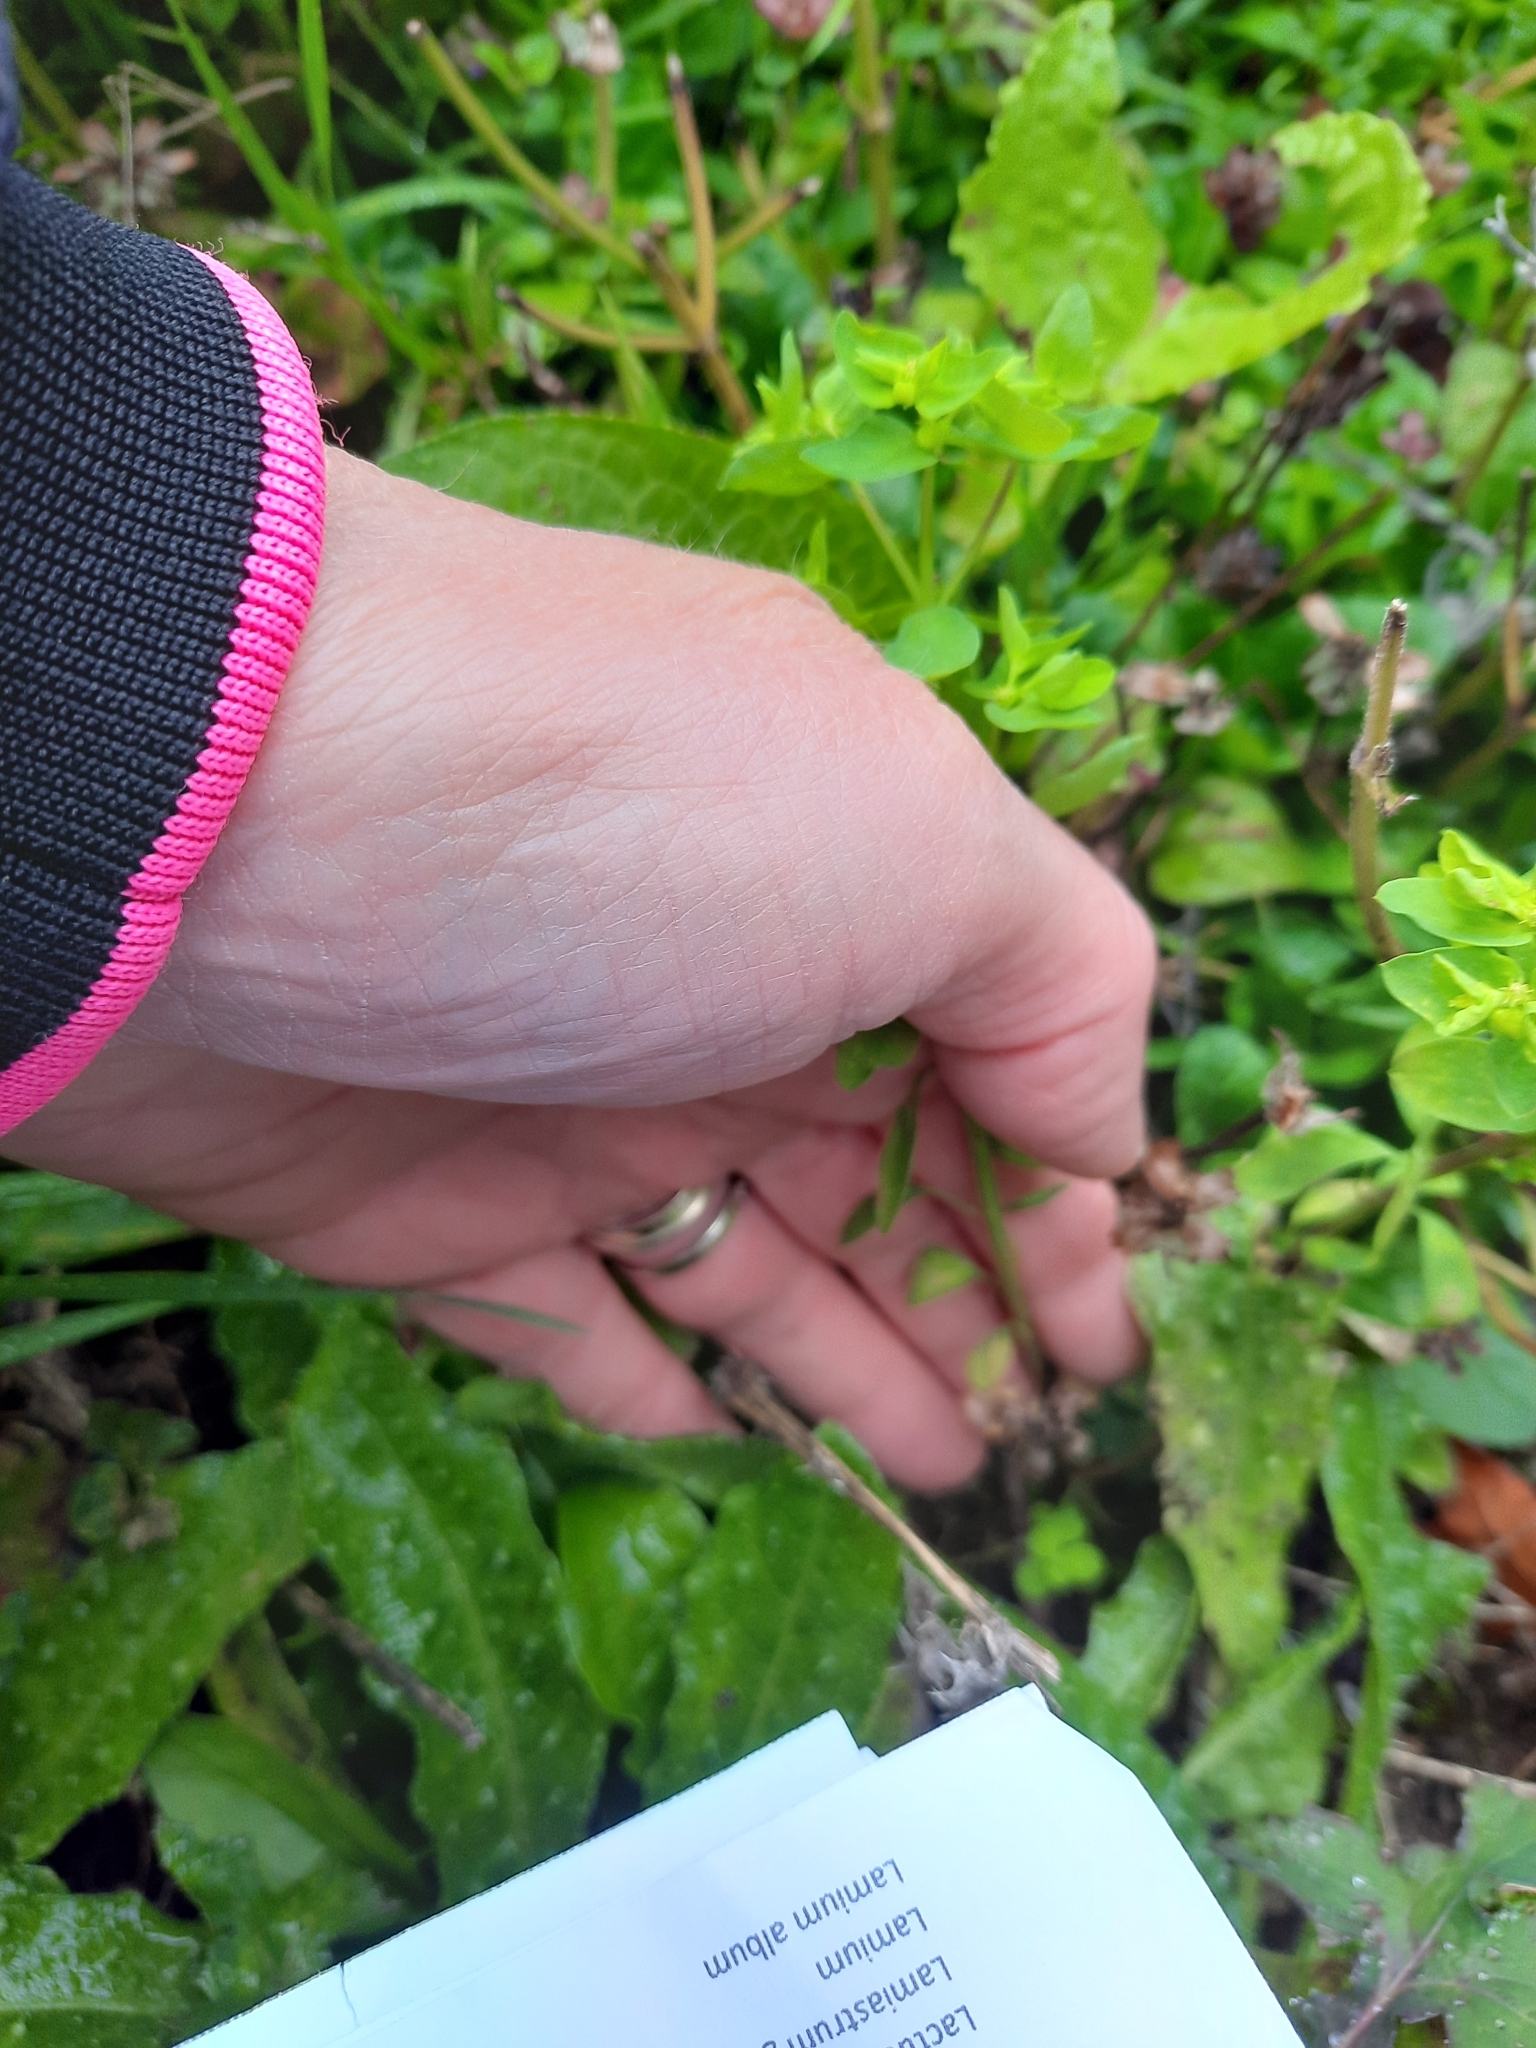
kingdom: Plantae
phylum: Tracheophyta
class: Magnoliopsida
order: Malpighiales
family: Euphorbiaceae
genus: Euphorbia
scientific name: Euphorbia peplus
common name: Petty spurge
